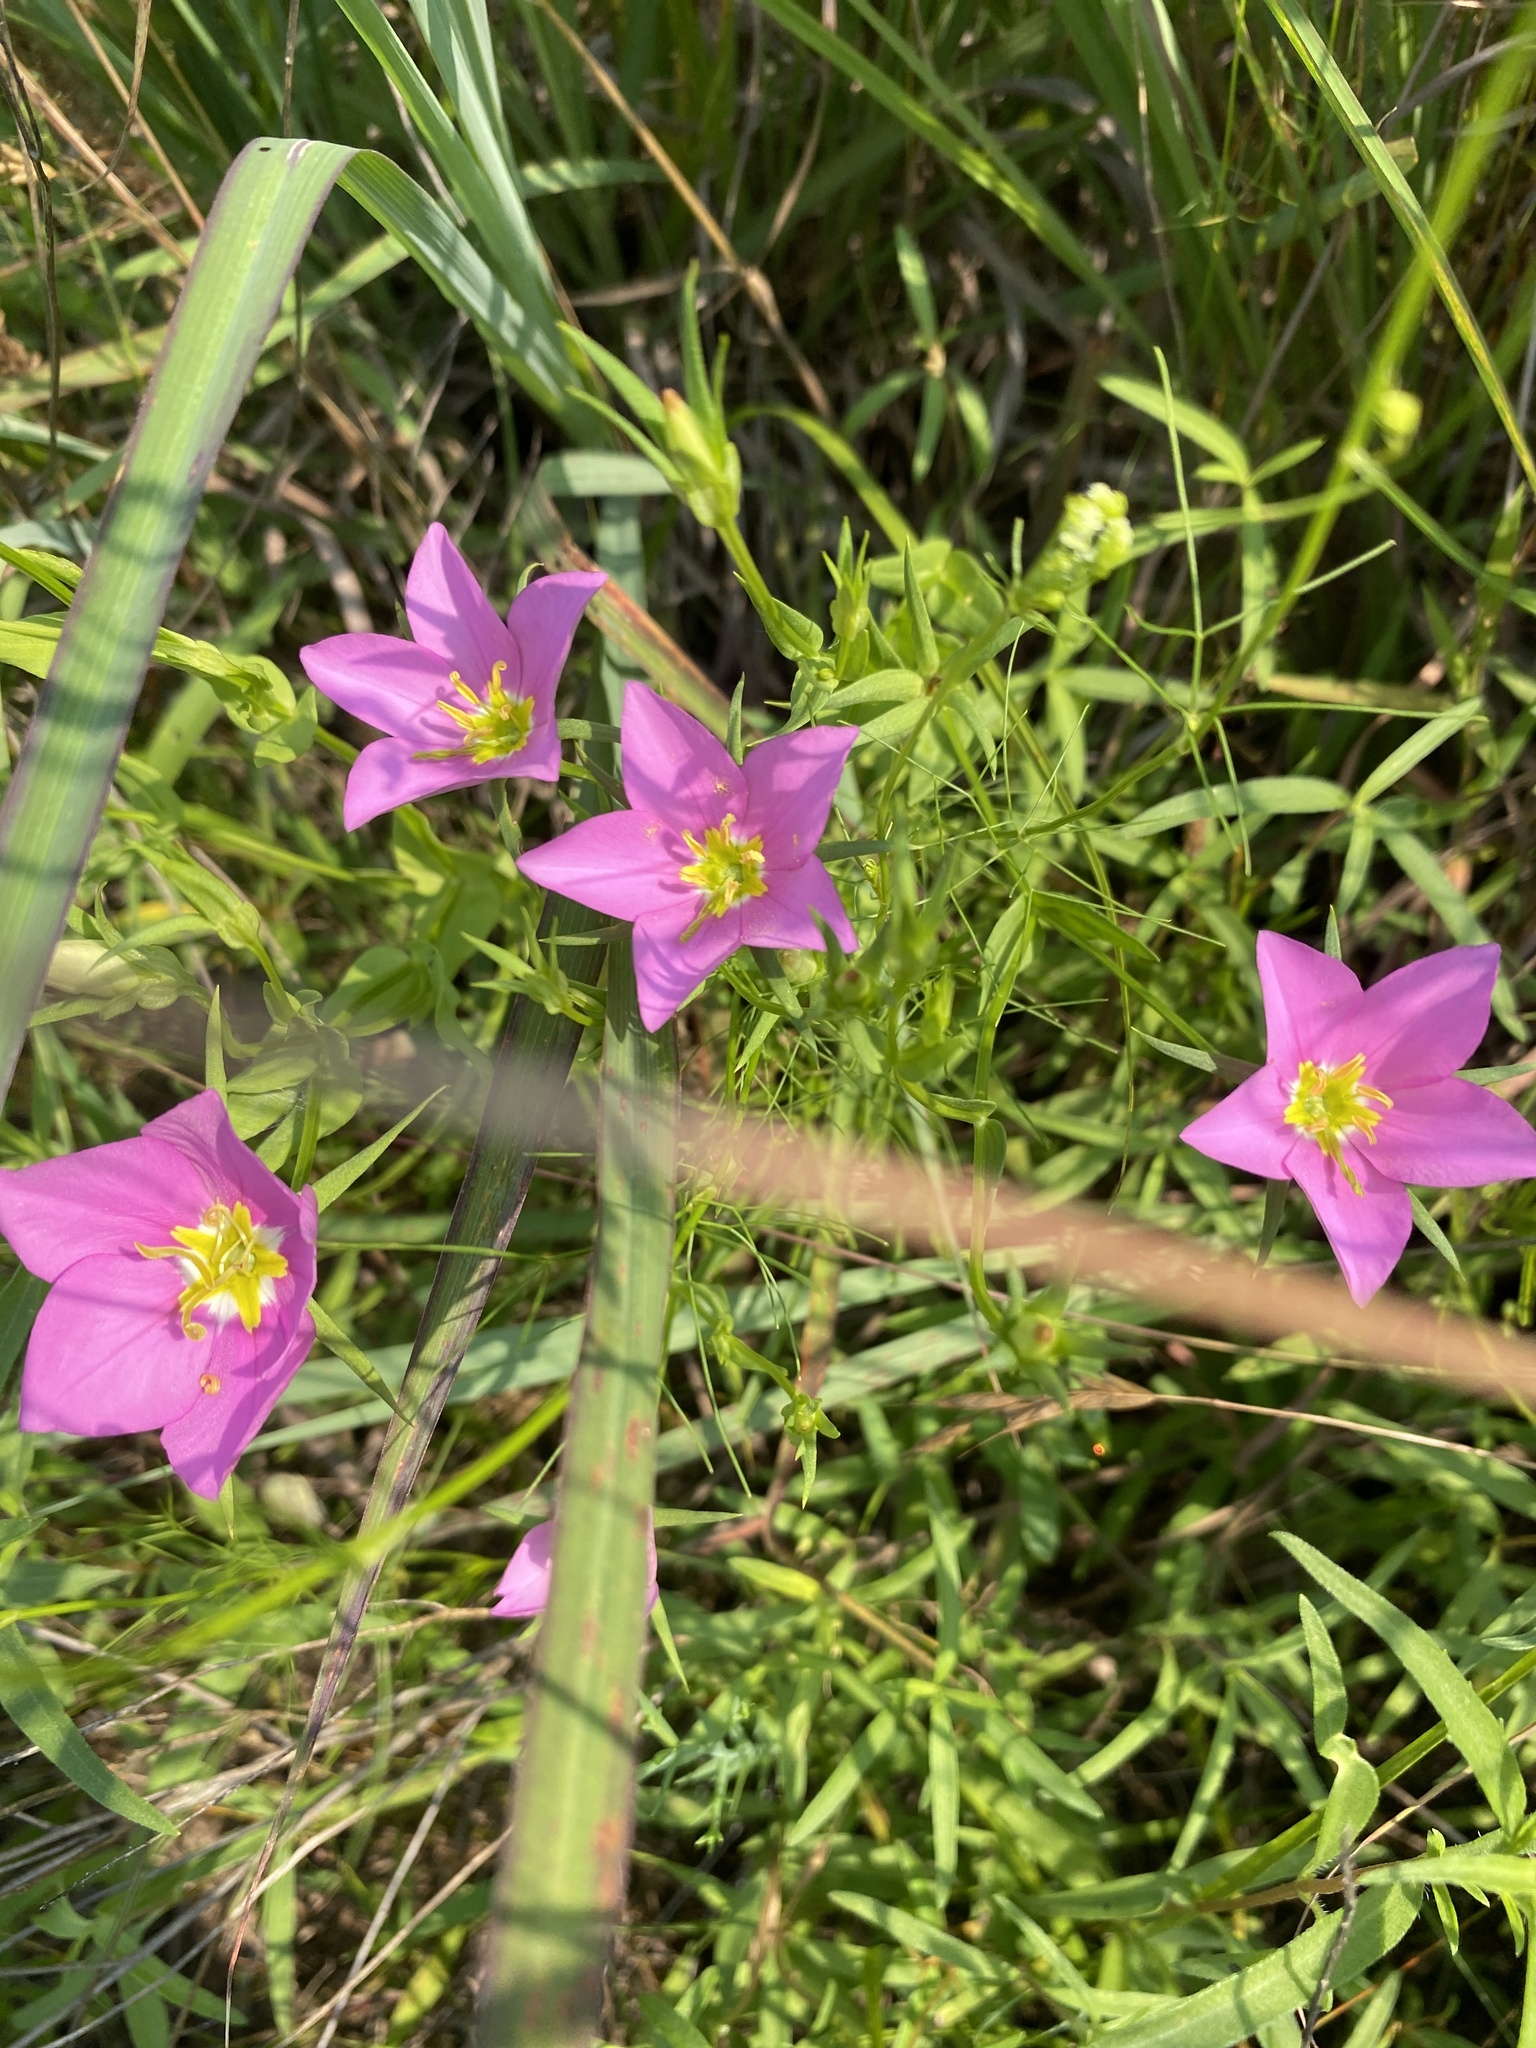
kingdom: Plantae
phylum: Tracheophyta
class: Magnoliopsida
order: Gentianales
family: Gentianaceae
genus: Sabatia
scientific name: Sabatia campestris
